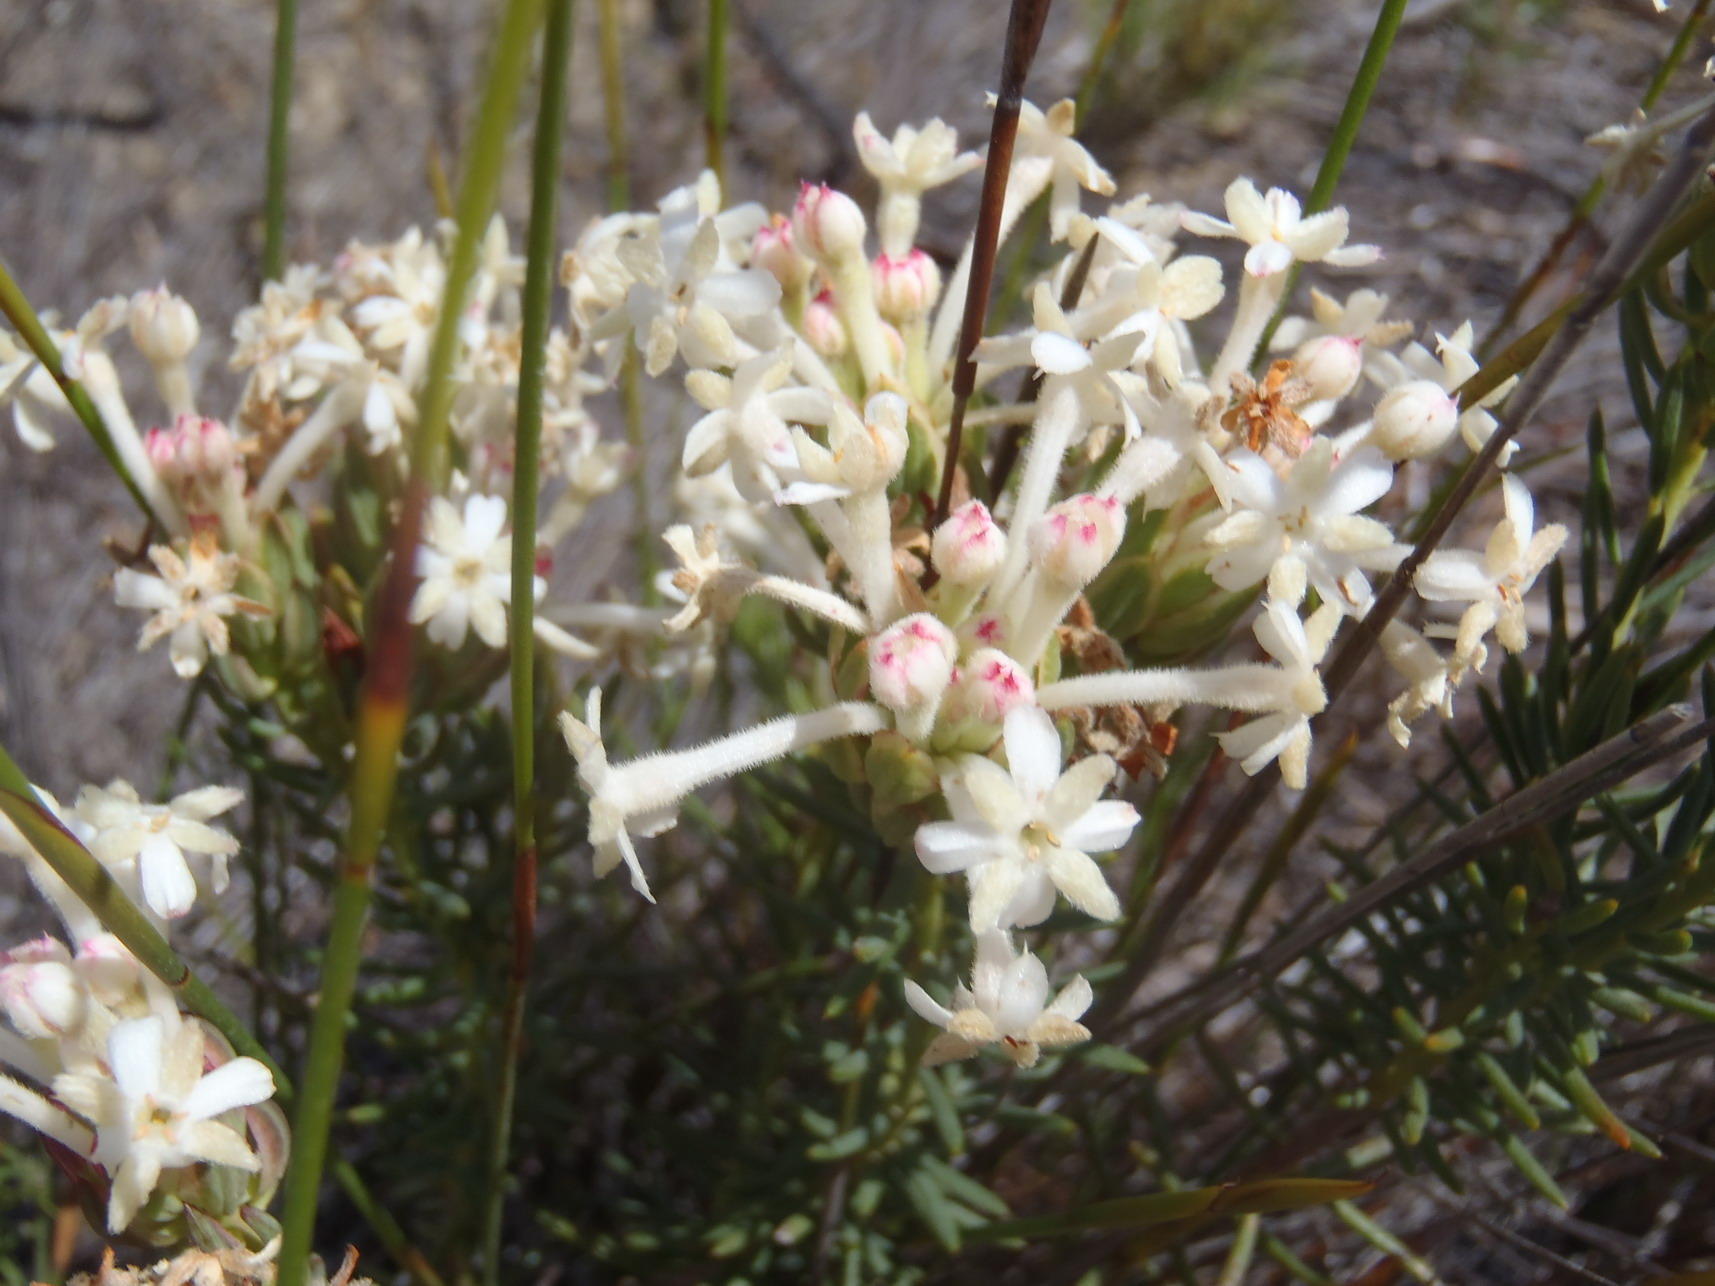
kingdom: Plantae
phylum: Tracheophyta
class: Magnoliopsida
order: Malvales
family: Thymelaeaceae
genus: Gnidia
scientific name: Gnidia pinifolia
